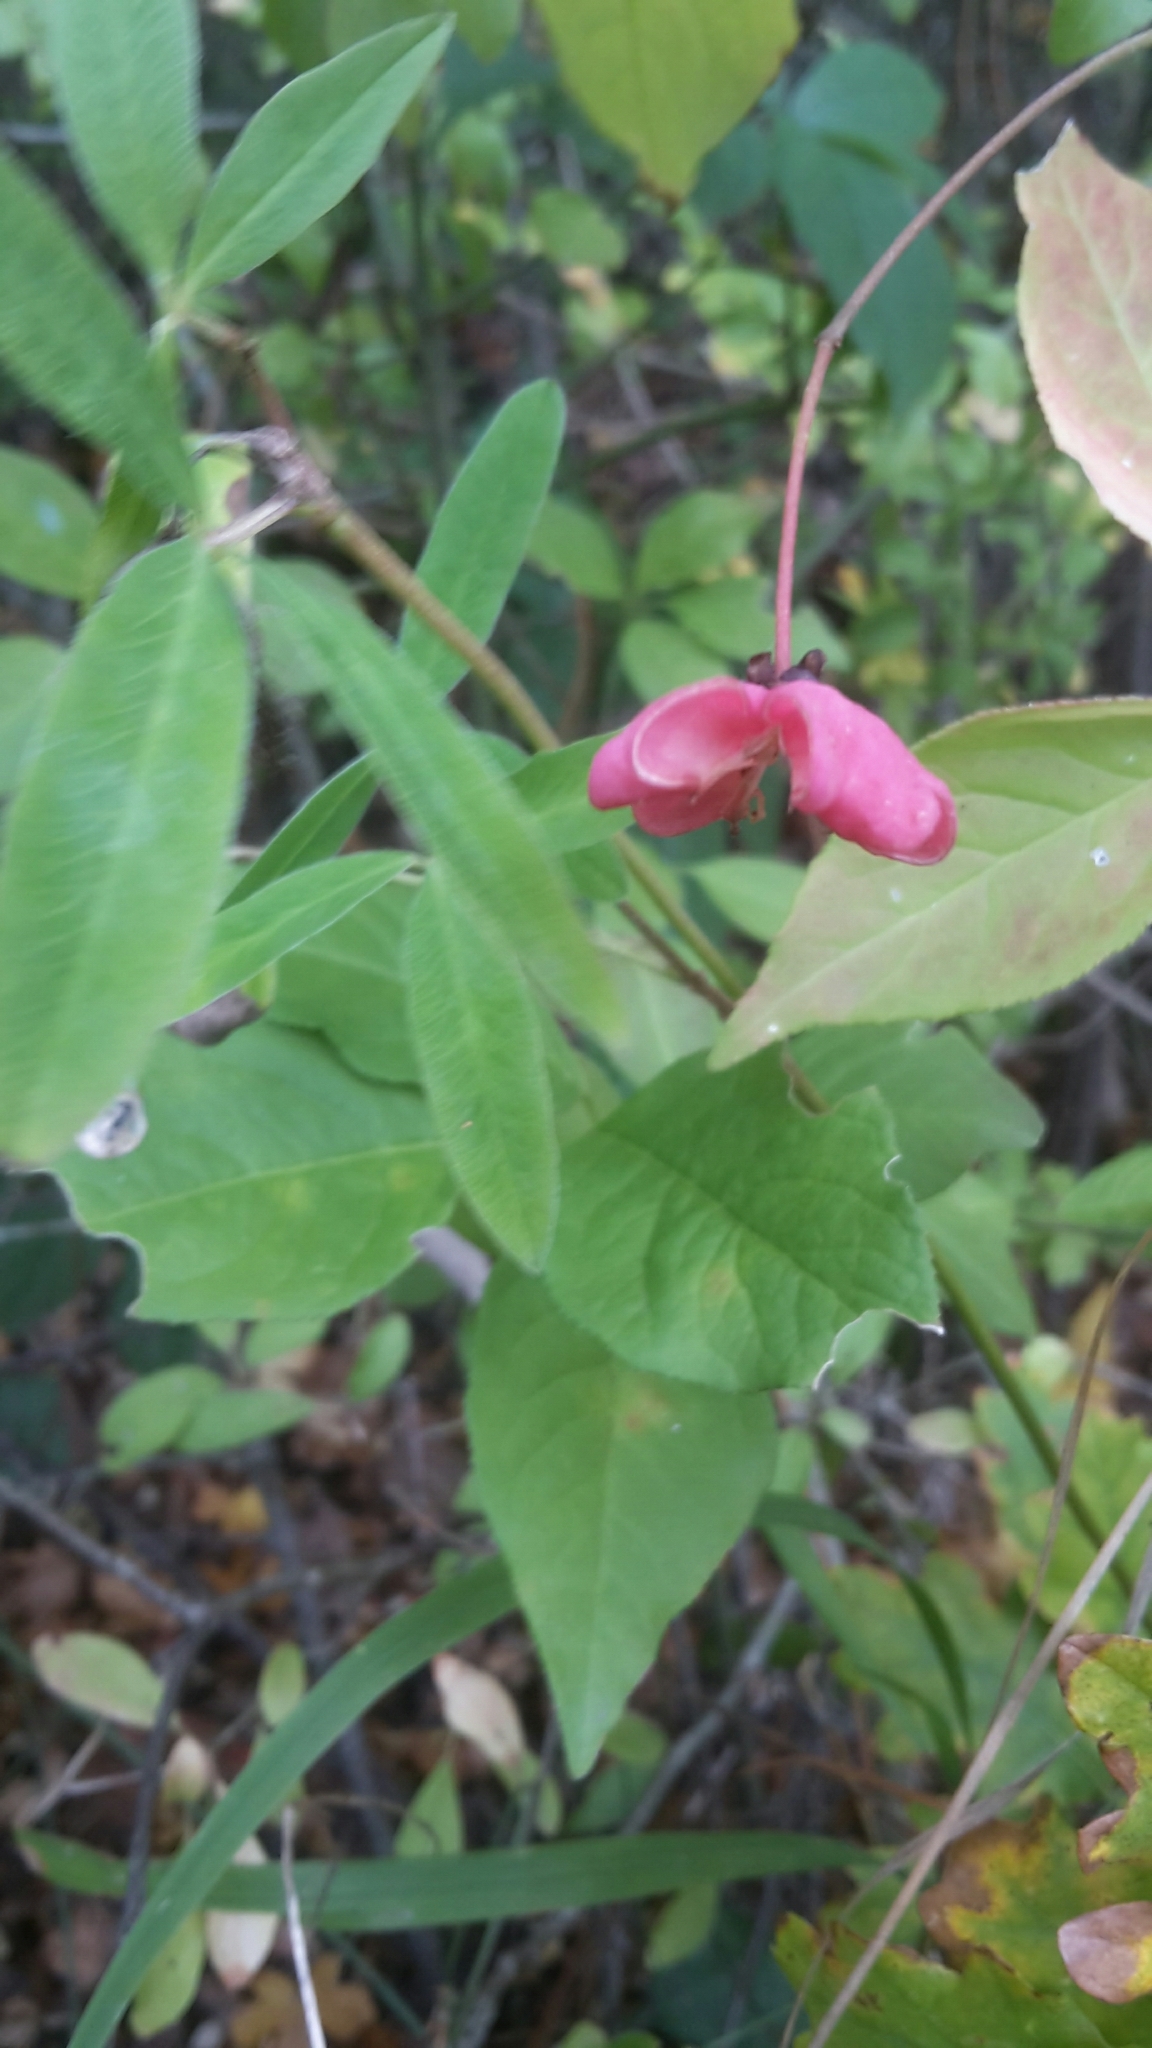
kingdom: Plantae
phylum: Tracheophyta
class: Magnoliopsida
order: Celastrales
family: Celastraceae
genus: Euonymus
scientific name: Euonymus europaeus
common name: Spindle
